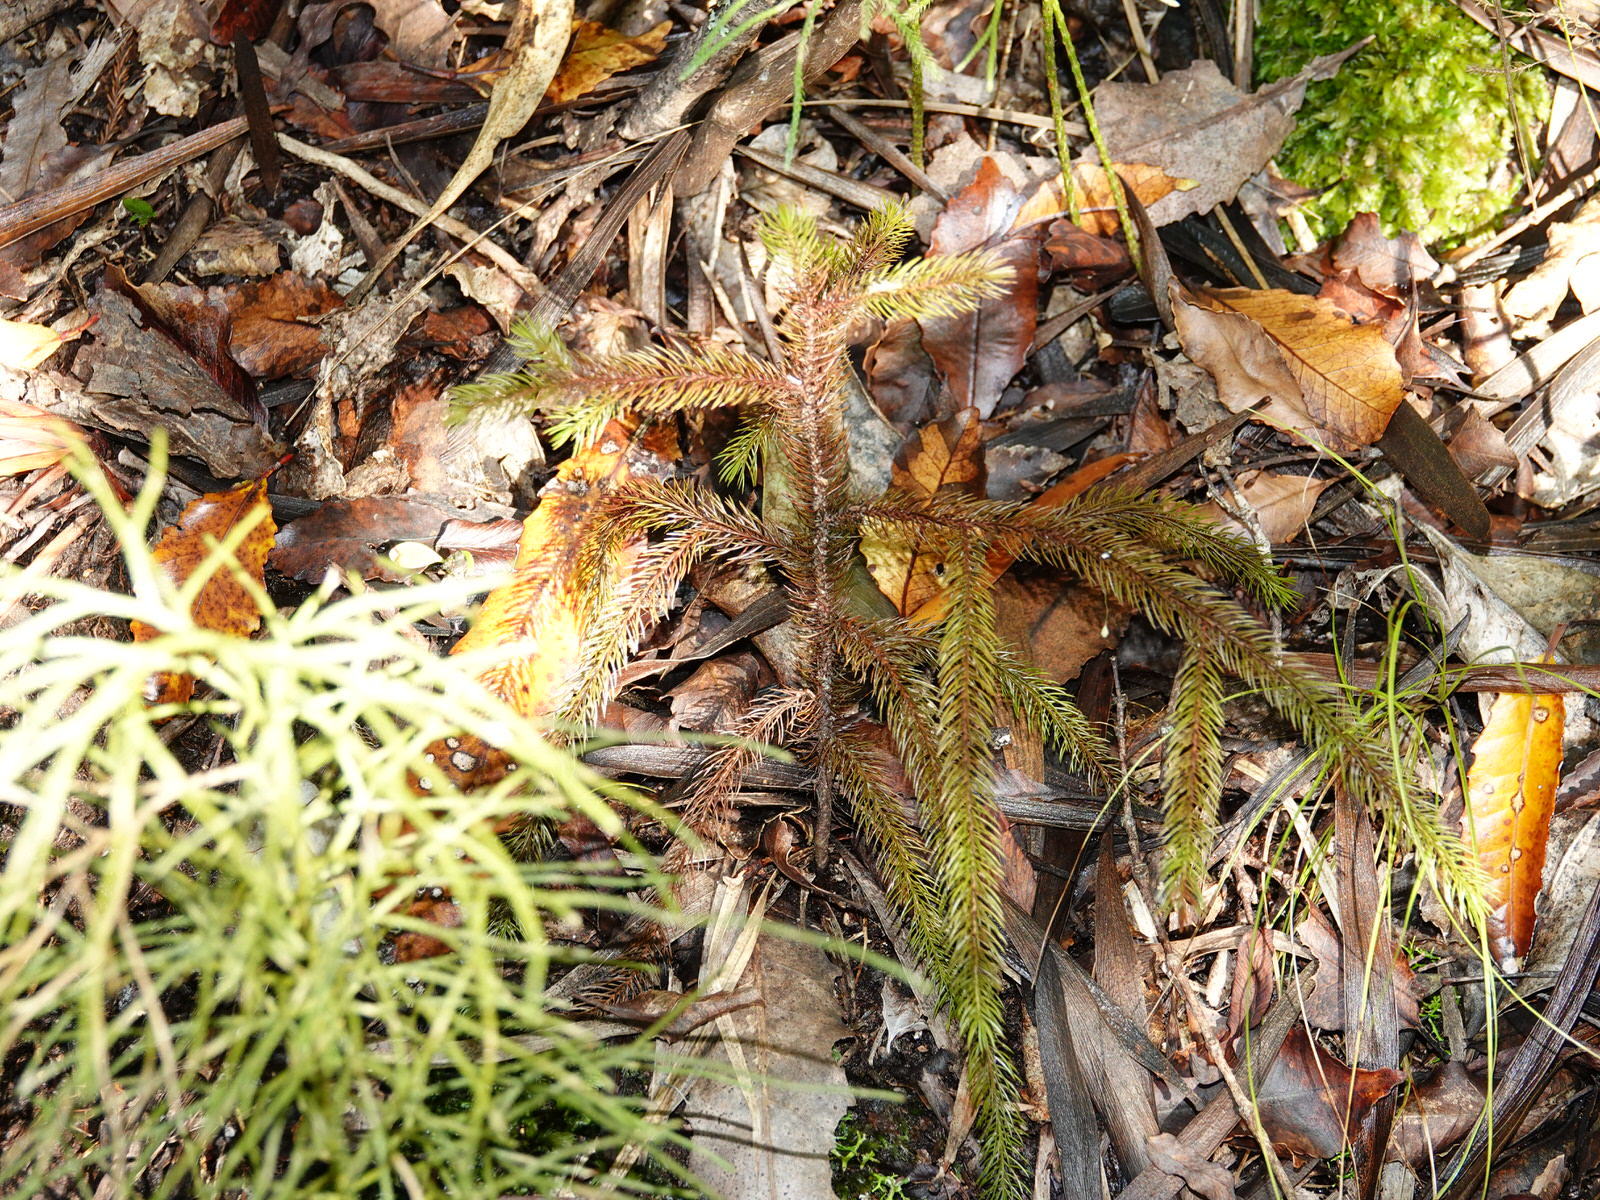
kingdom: Plantae
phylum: Tracheophyta
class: Pinopsida
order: Pinales
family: Podocarpaceae
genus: Dacrydium
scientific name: Dacrydium cupressinum
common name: Red pine
